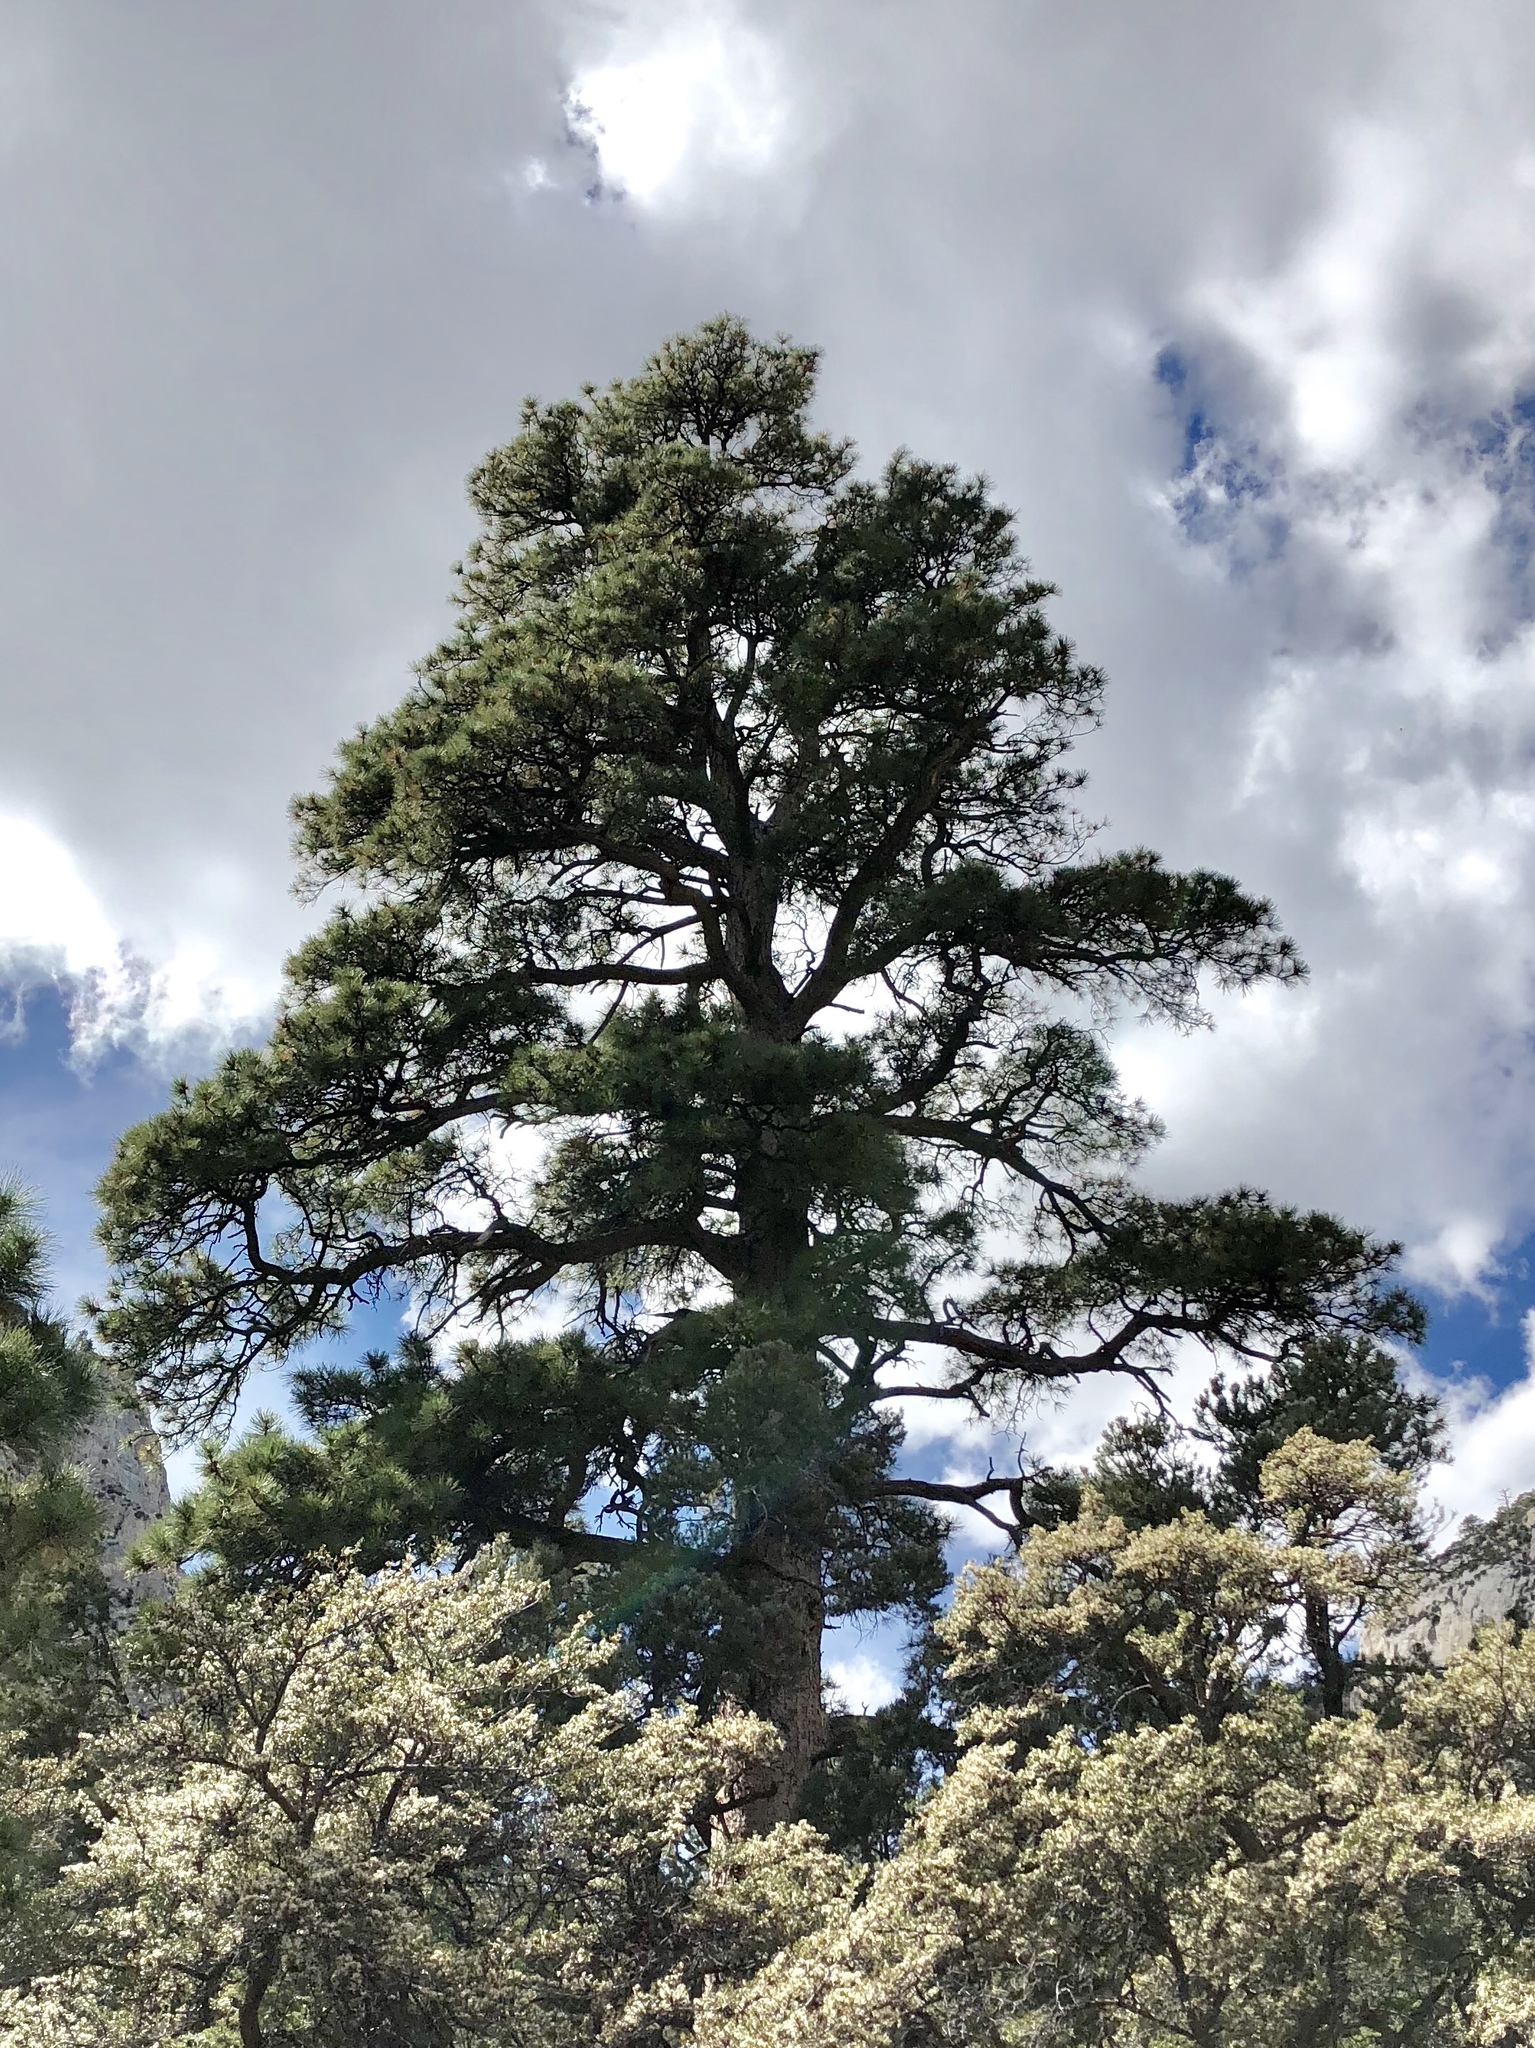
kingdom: Plantae
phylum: Tracheophyta
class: Pinopsida
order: Pinales
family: Pinaceae
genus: Pinus
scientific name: Pinus ponderosa
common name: Western yellow-pine
